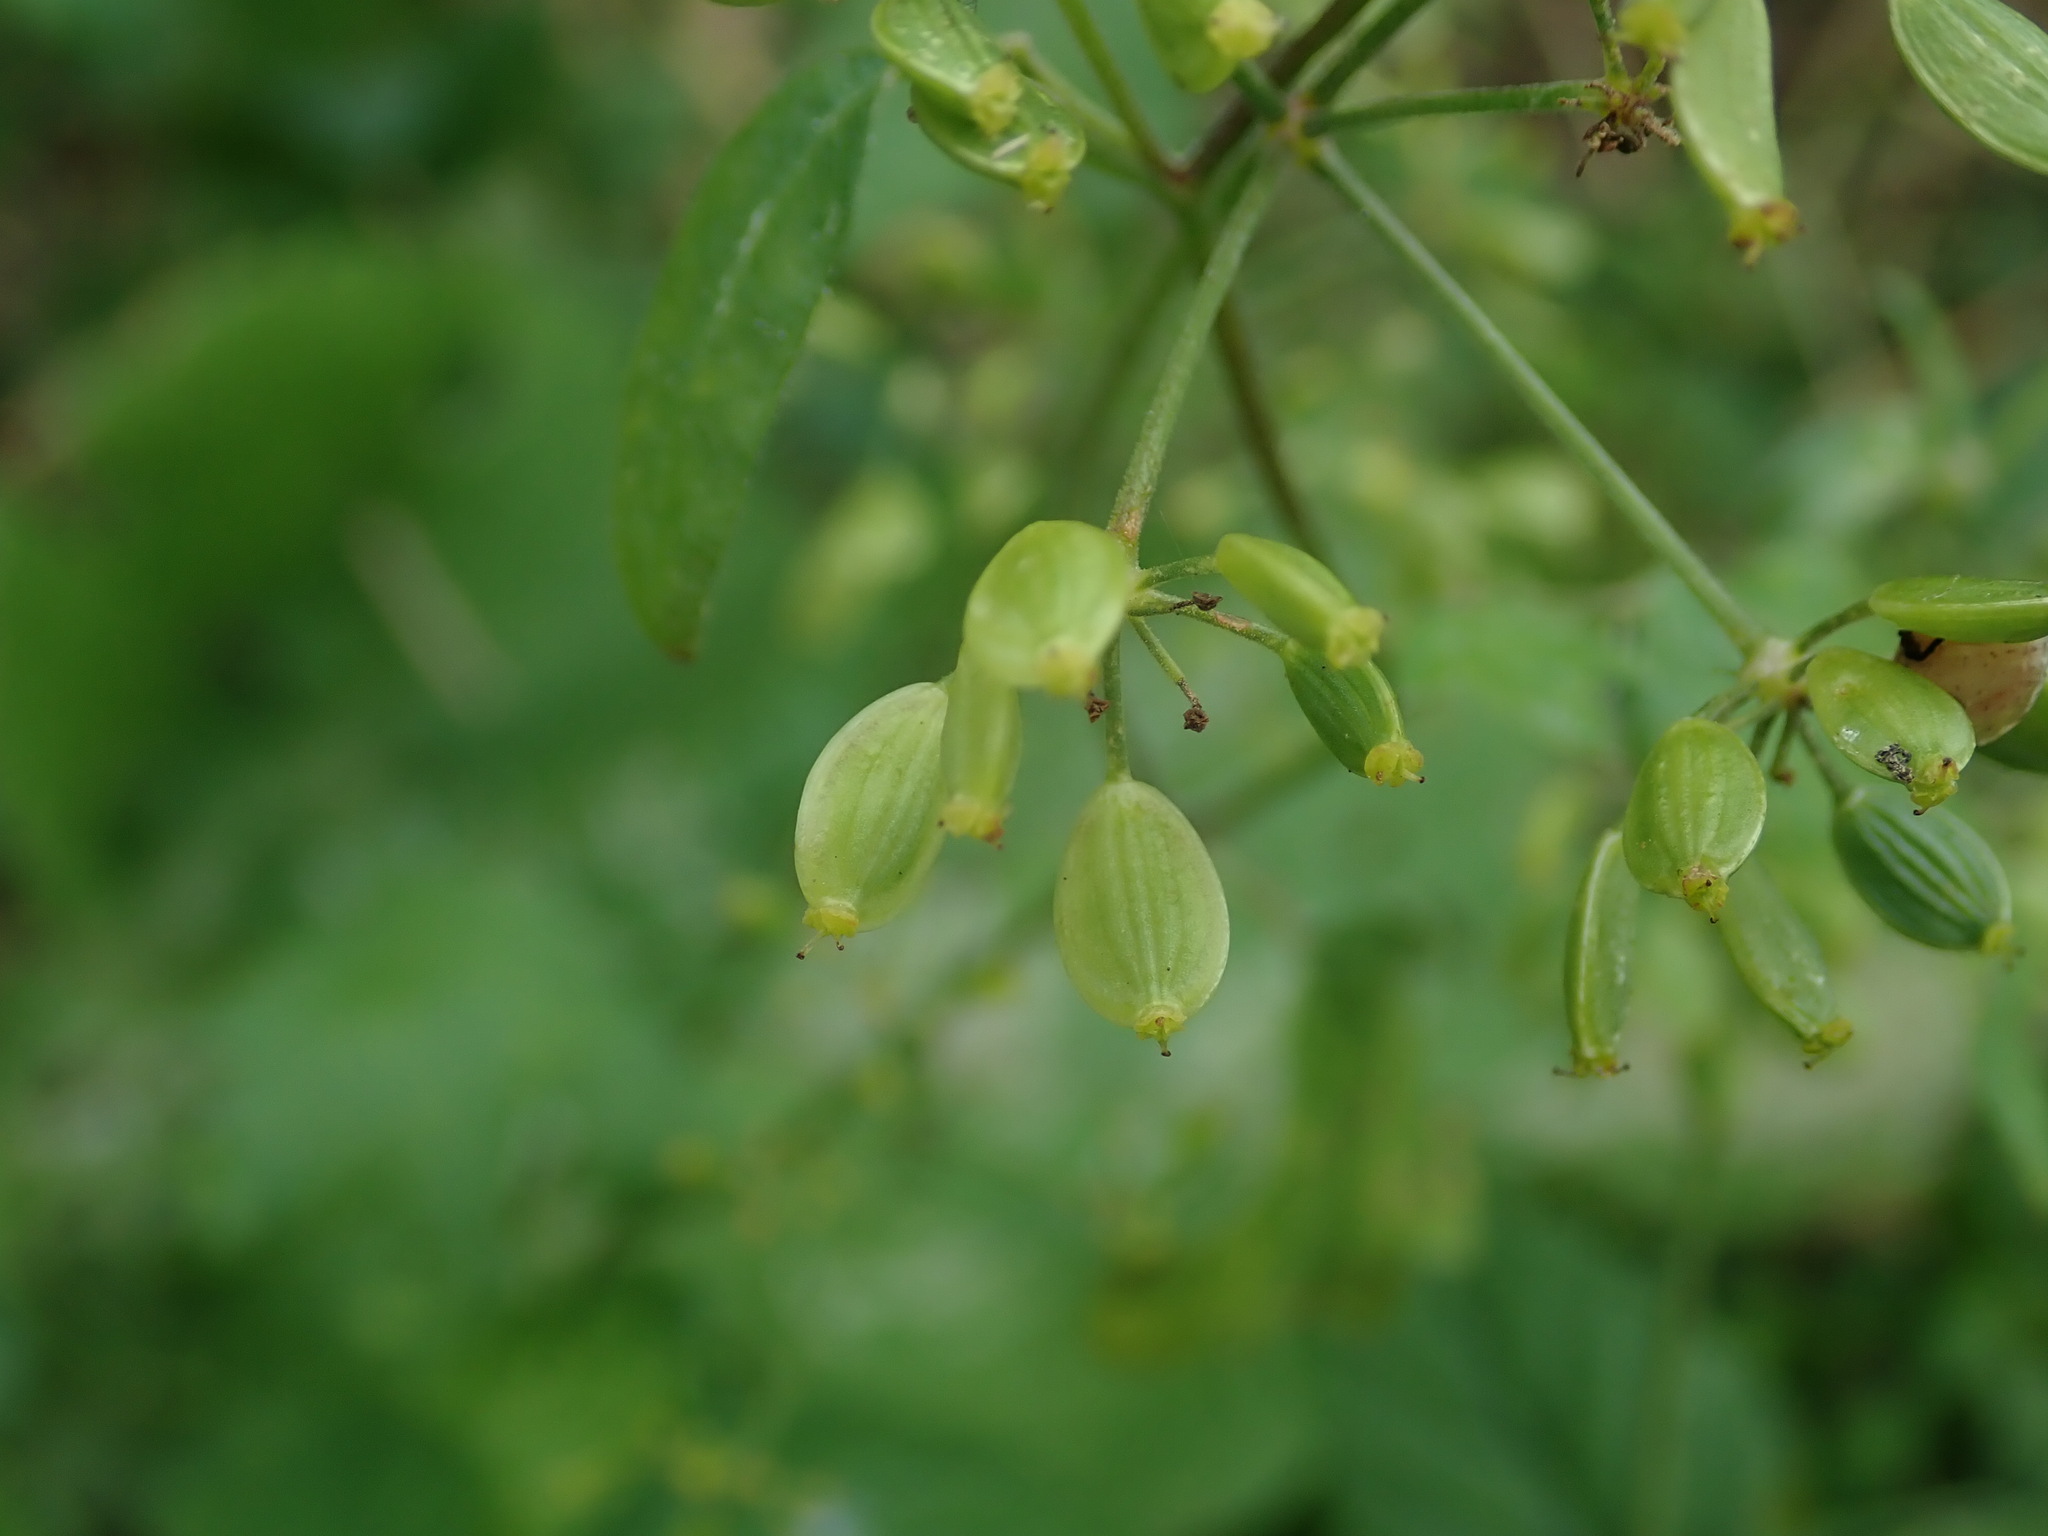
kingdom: Plantae
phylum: Tracheophyta
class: Magnoliopsida
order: Apiales
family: Apiaceae
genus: Pastinaca
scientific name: Pastinaca sativa
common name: Wild parsnip
